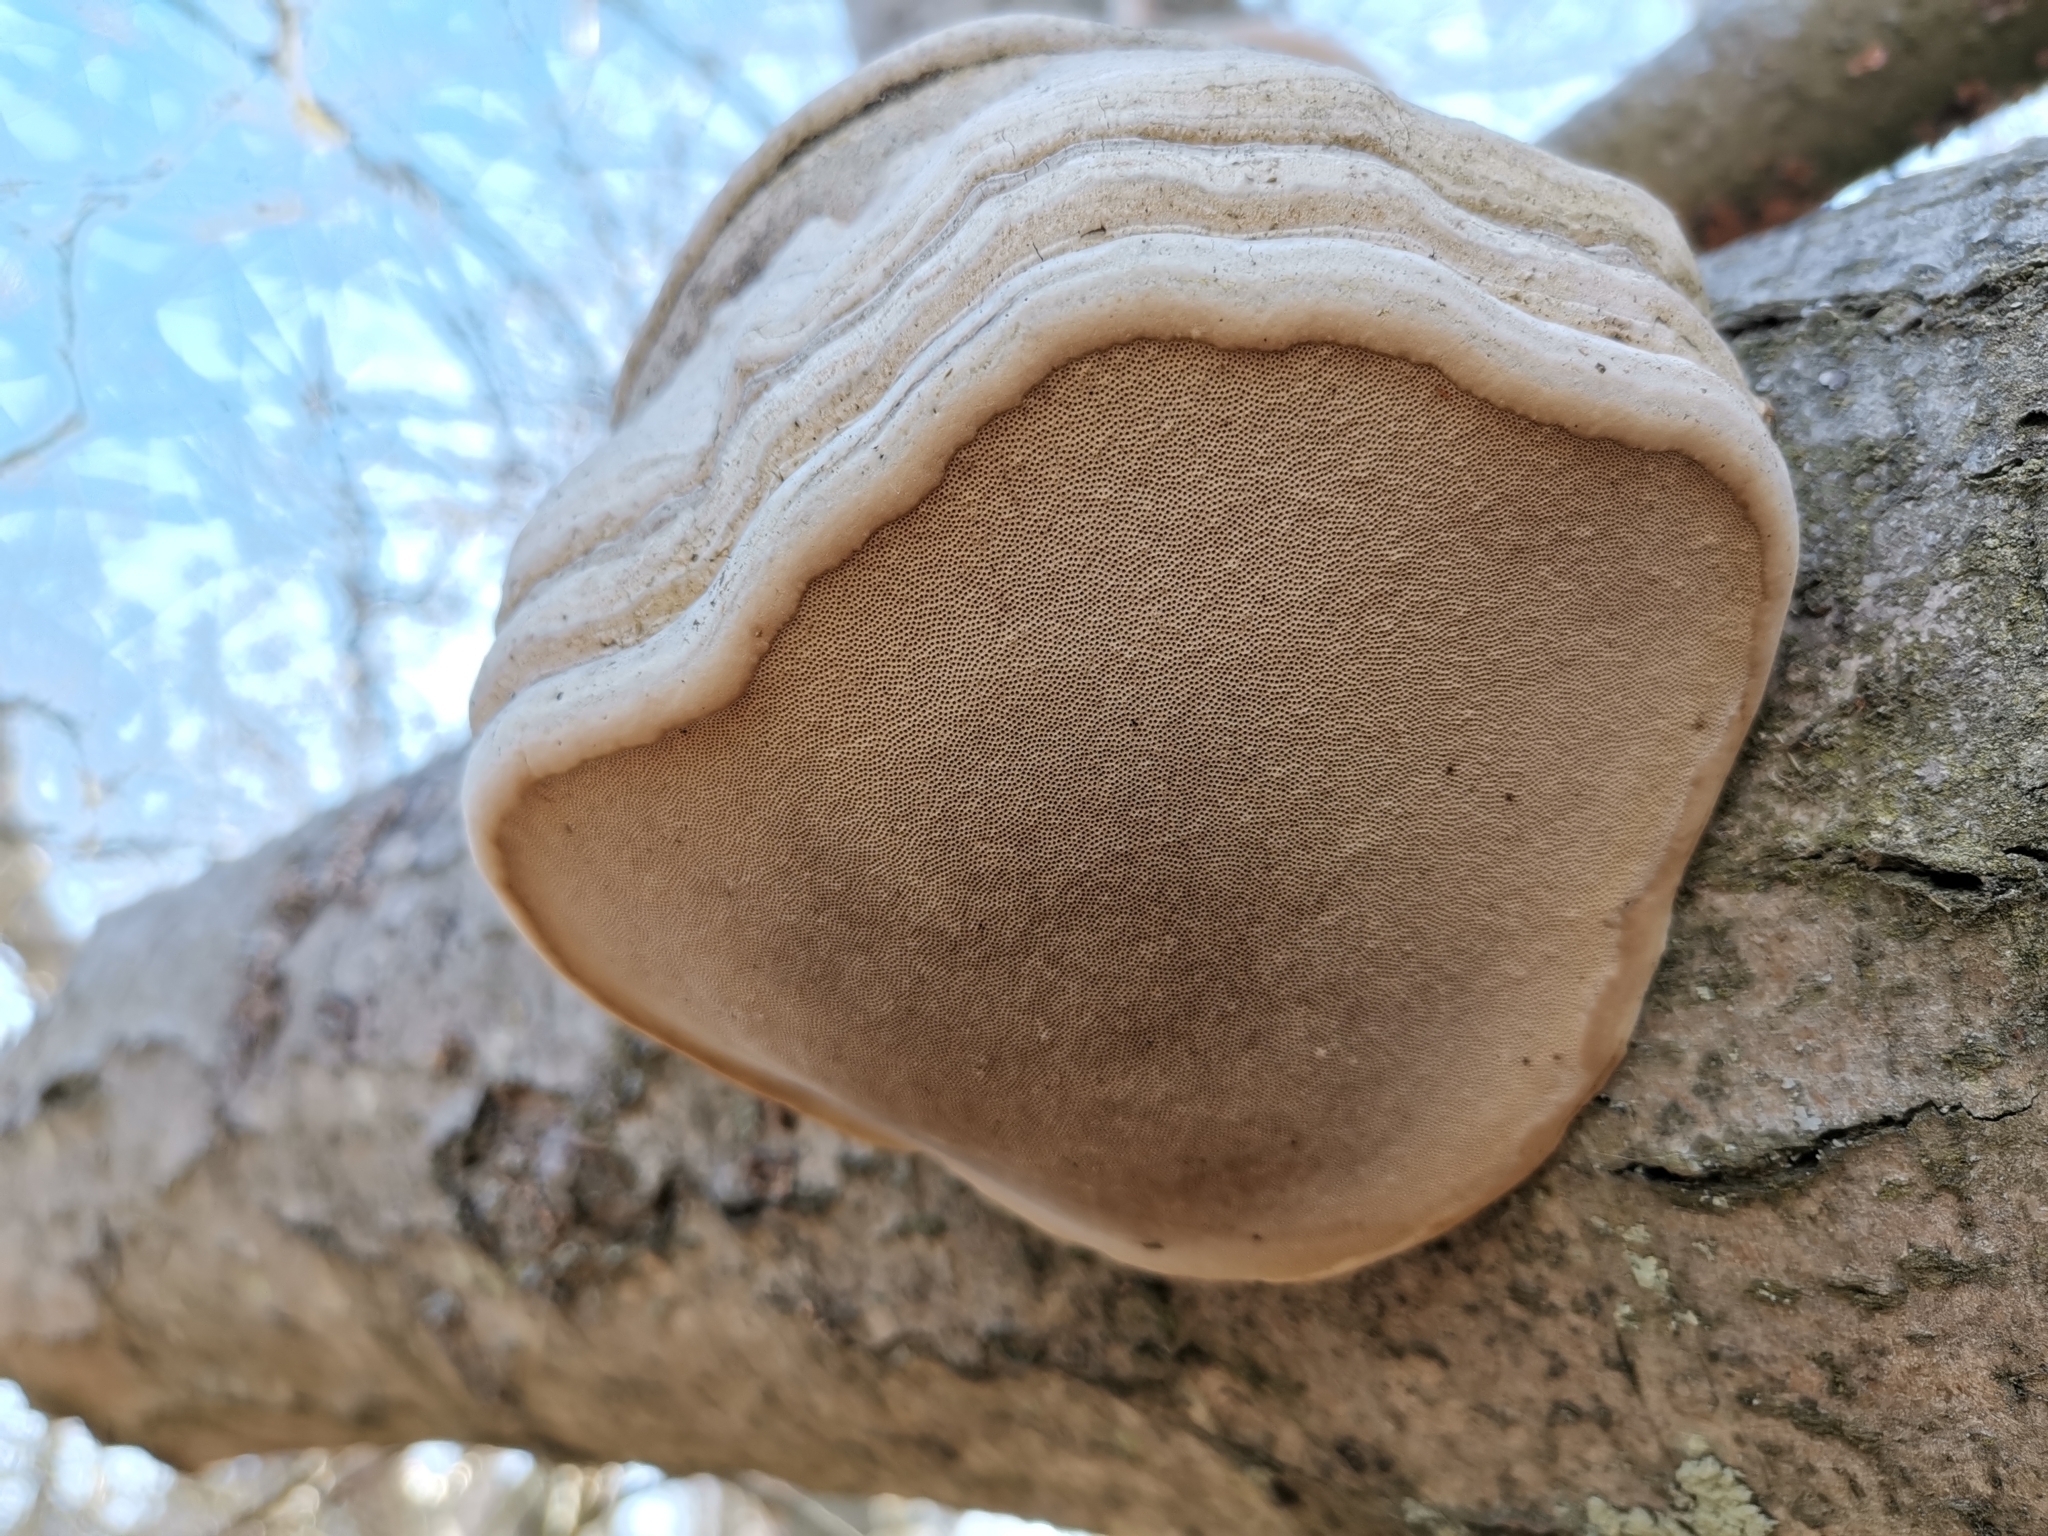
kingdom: Fungi
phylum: Basidiomycota
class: Agaricomycetes
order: Polyporales
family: Polyporaceae
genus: Fomes
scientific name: Fomes fomentarius
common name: Hoof fungus
